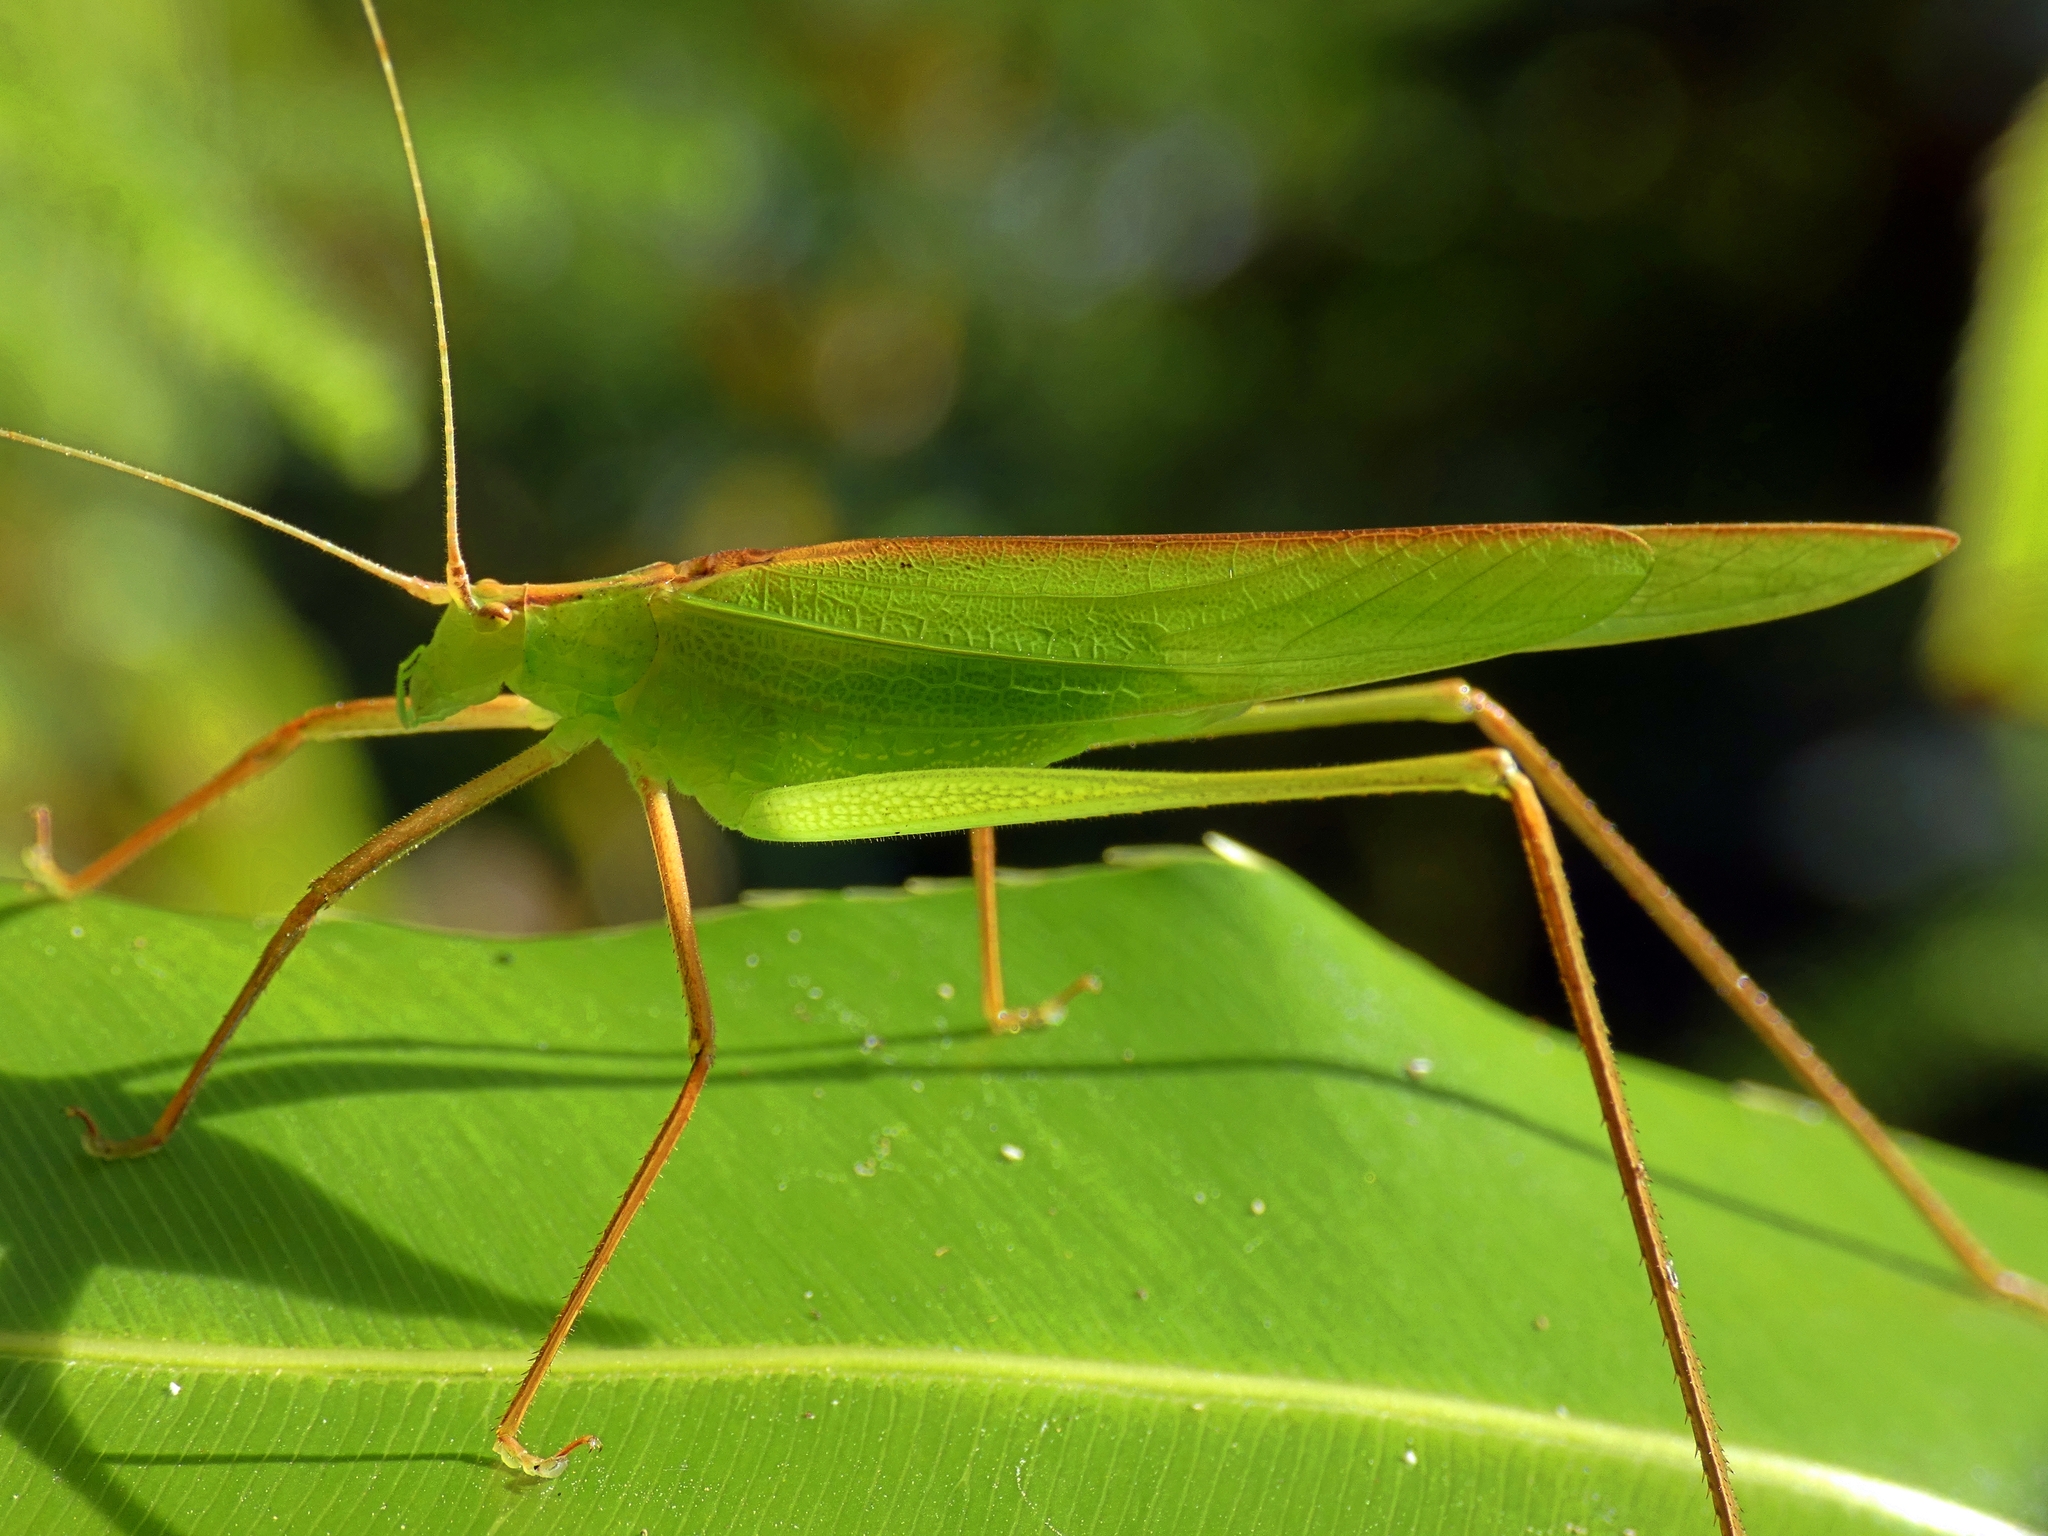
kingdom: Animalia
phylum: Arthropoda
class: Insecta
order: Orthoptera
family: Tettigoniidae
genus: Ducetia
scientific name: Ducetia antipoda
